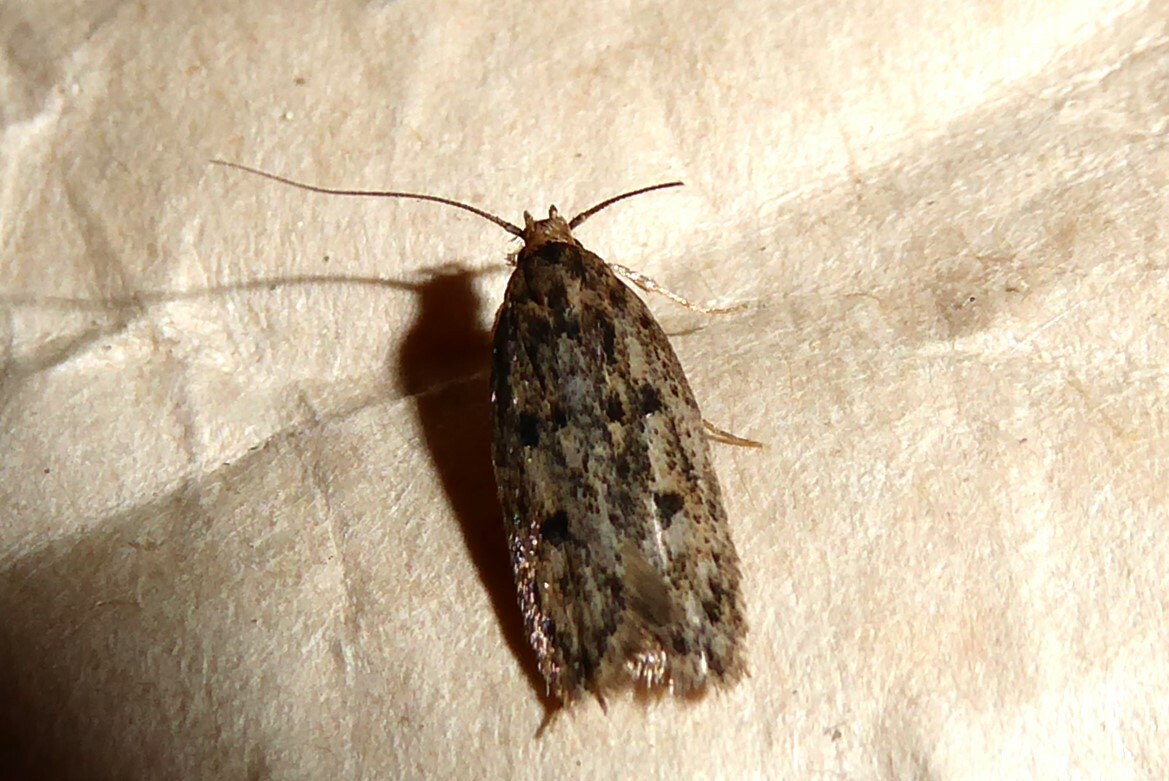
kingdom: Animalia
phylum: Arthropoda
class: Insecta
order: Lepidoptera
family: Oecophoridae
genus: Hofmannophila
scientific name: Hofmannophila pseudospretella
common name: Brown house moth
